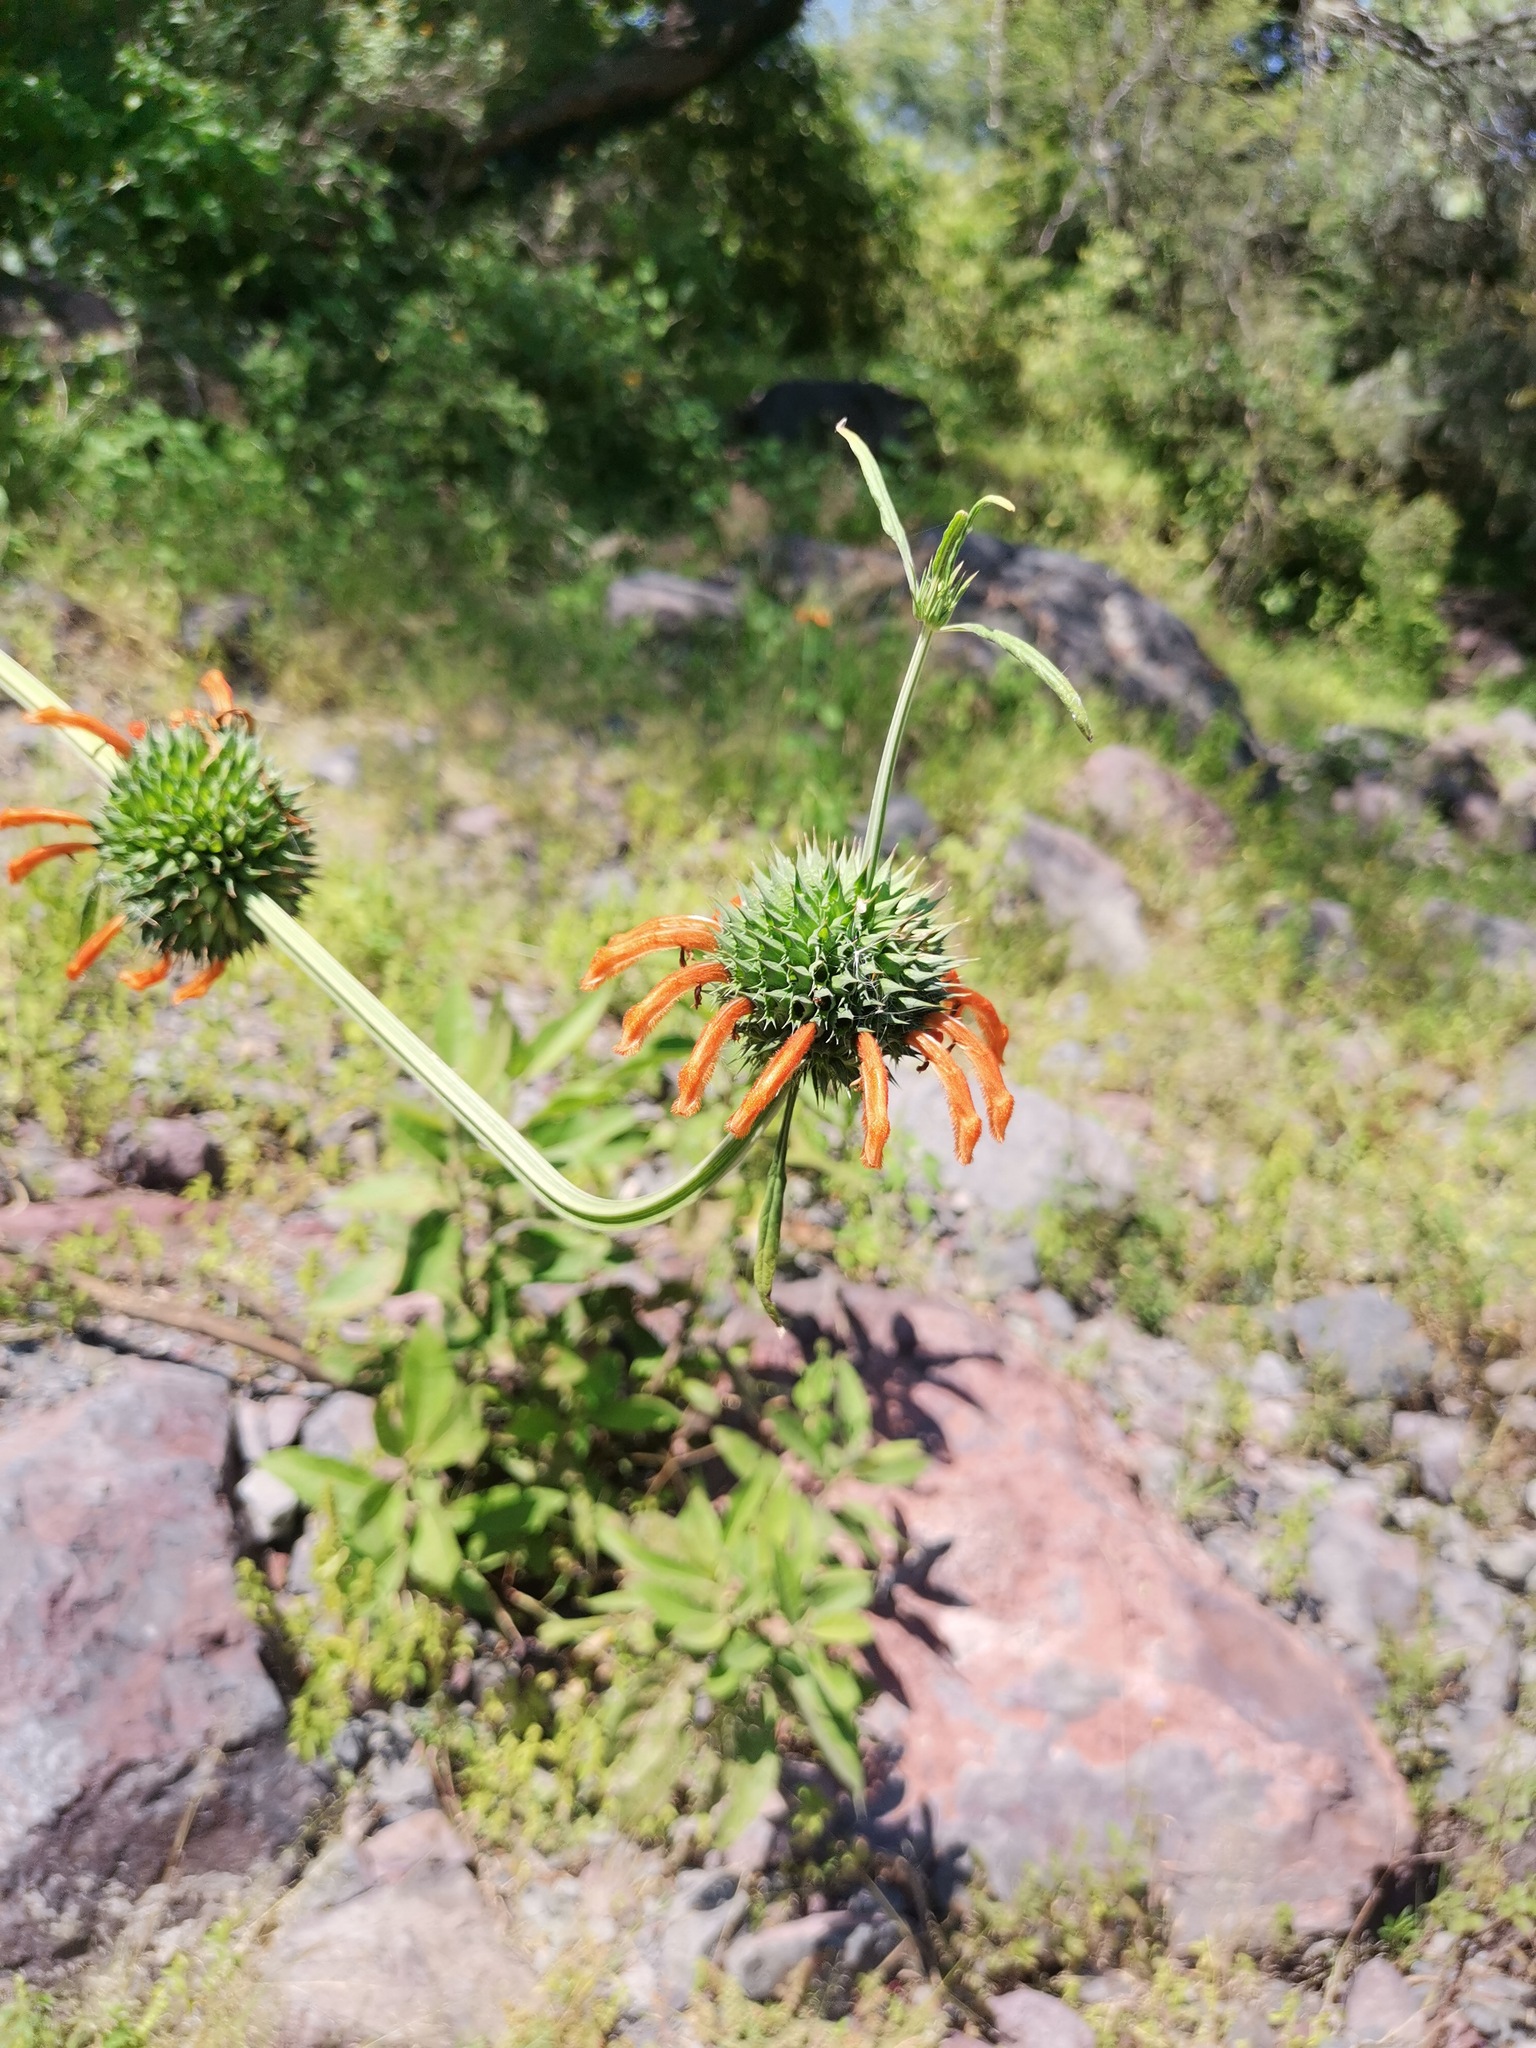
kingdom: Plantae
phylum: Tracheophyta
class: Magnoliopsida
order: Lamiales
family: Lamiaceae
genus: Leonotis
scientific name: Leonotis nepetifolia
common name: Christmas candlestick
